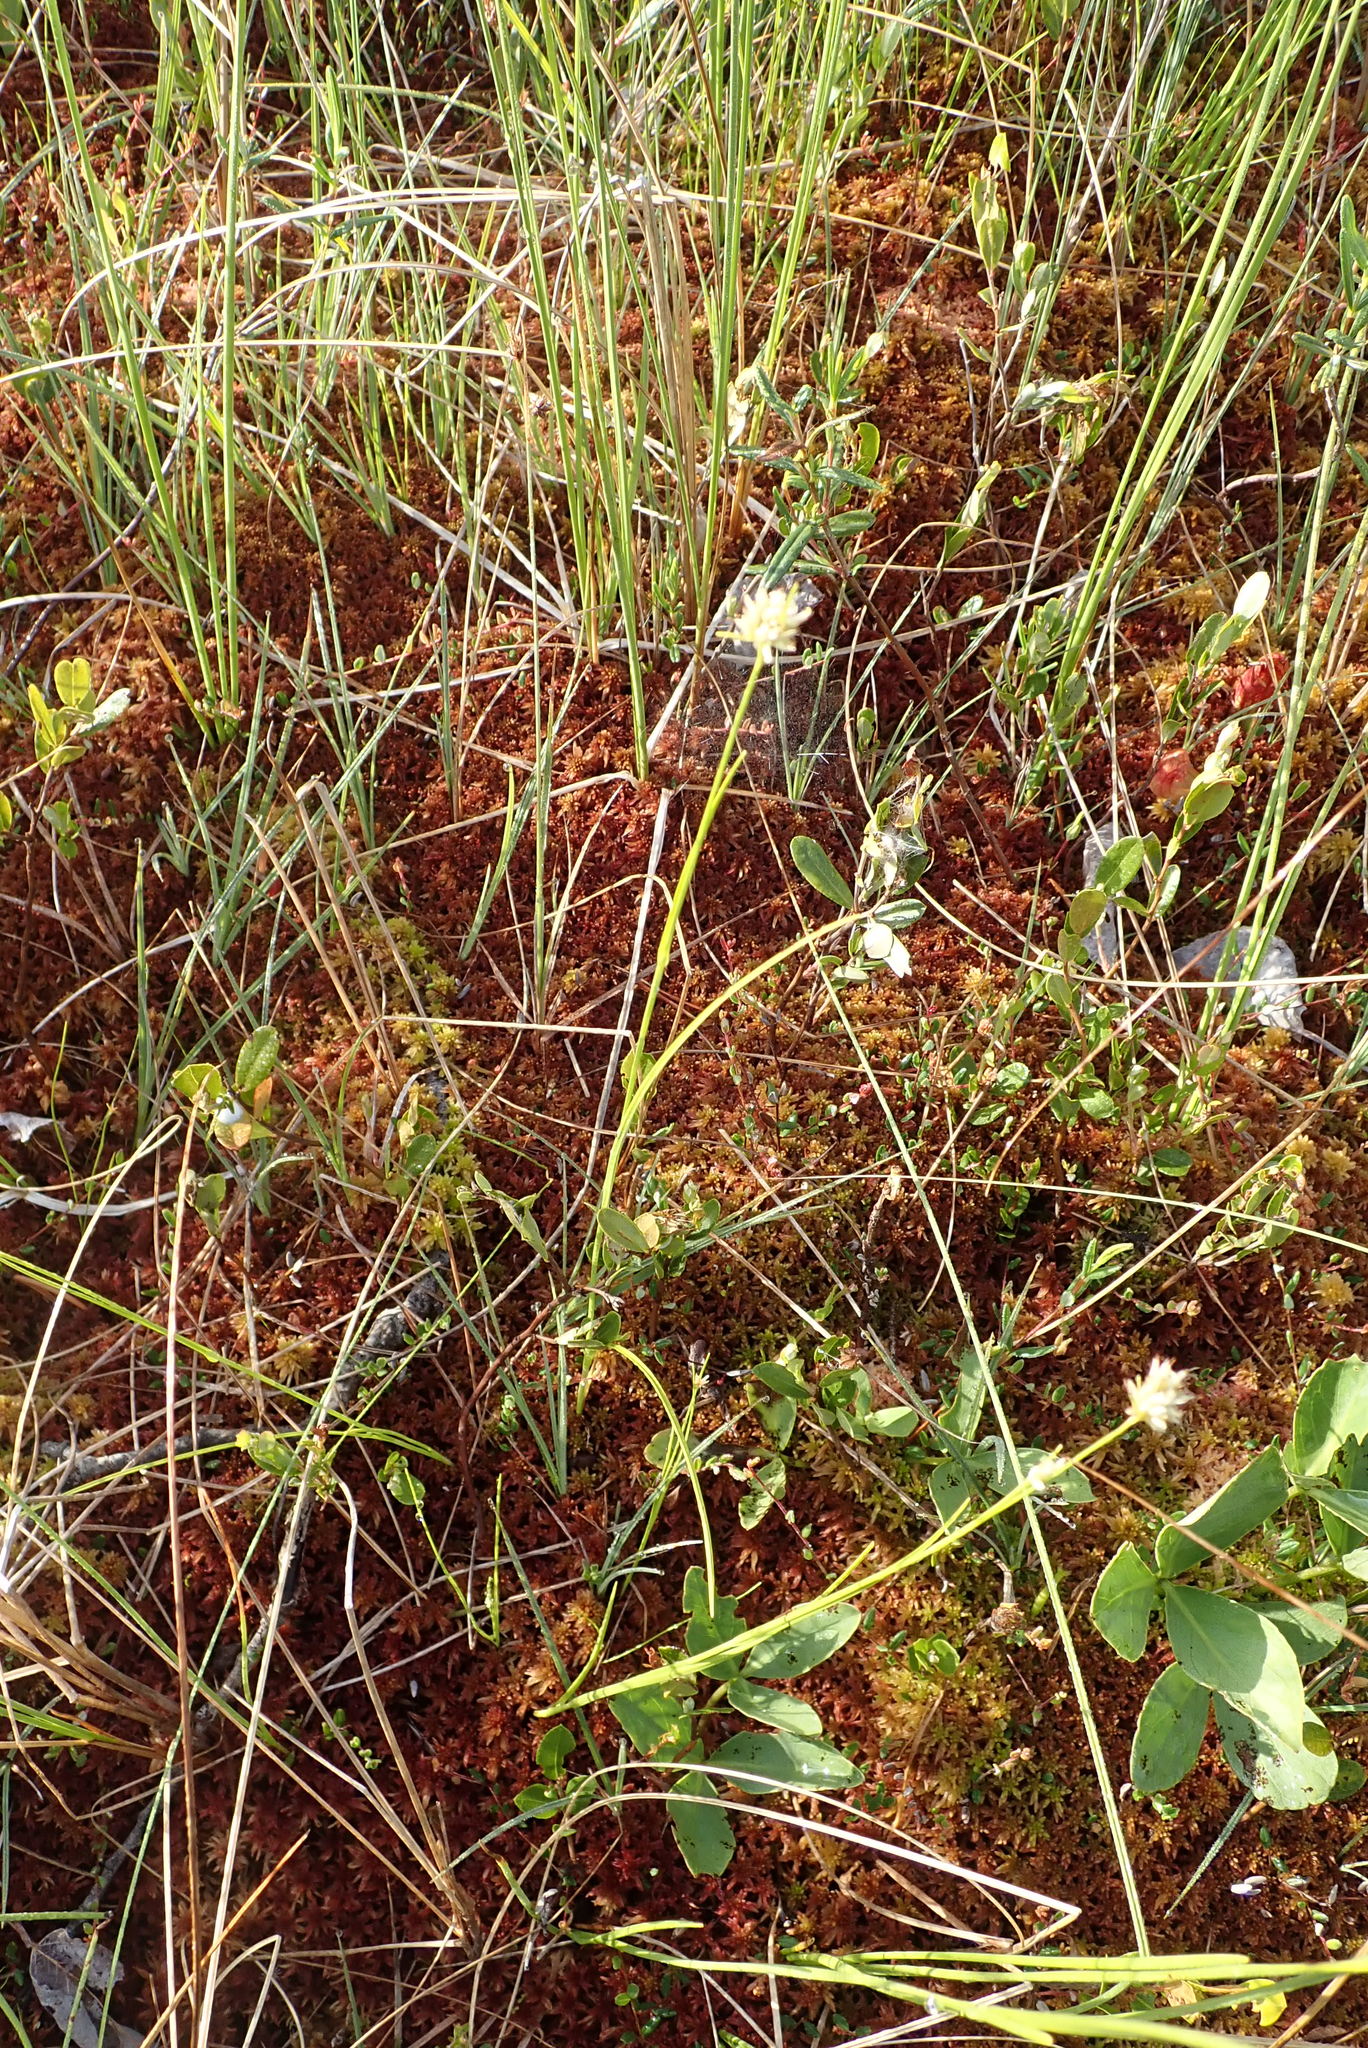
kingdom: Plantae
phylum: Tracheophyta
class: Liliopsida
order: Poales
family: Cyperaceae
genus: Rhynchospora
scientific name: Rhynchospora alba
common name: White beak-sedge
